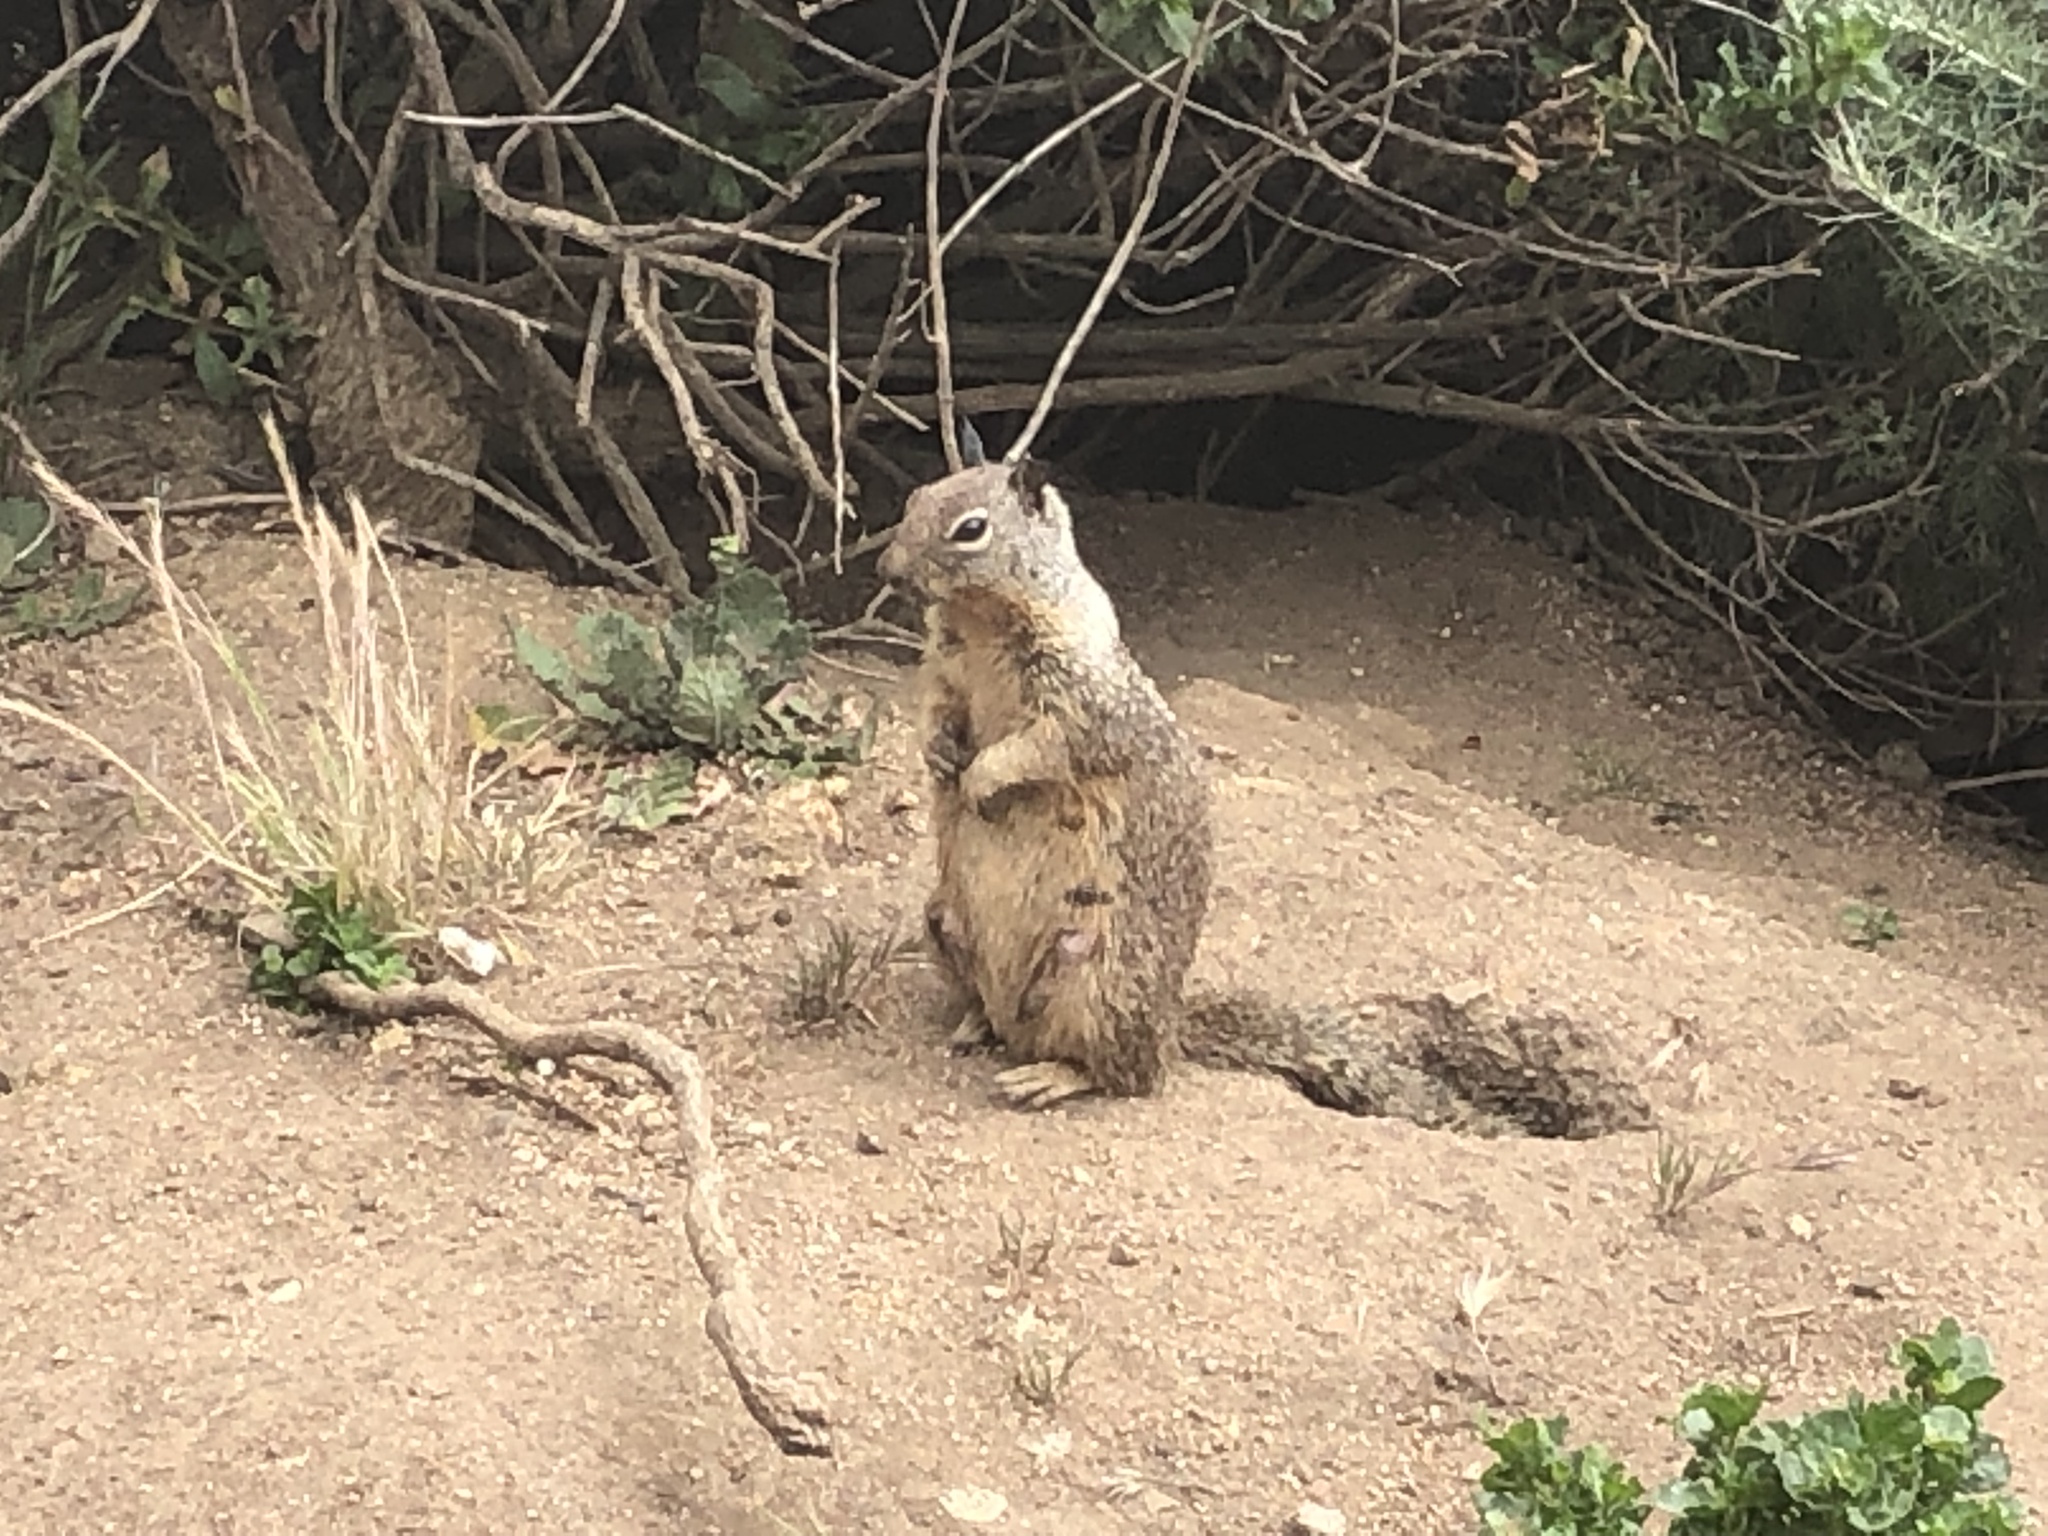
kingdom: Animalia
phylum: Chordata
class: Mammalia
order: Rodentia
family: Sciuridae
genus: Otospermophilus
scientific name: Otospermophilus beecheyi
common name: California ground squirrel
